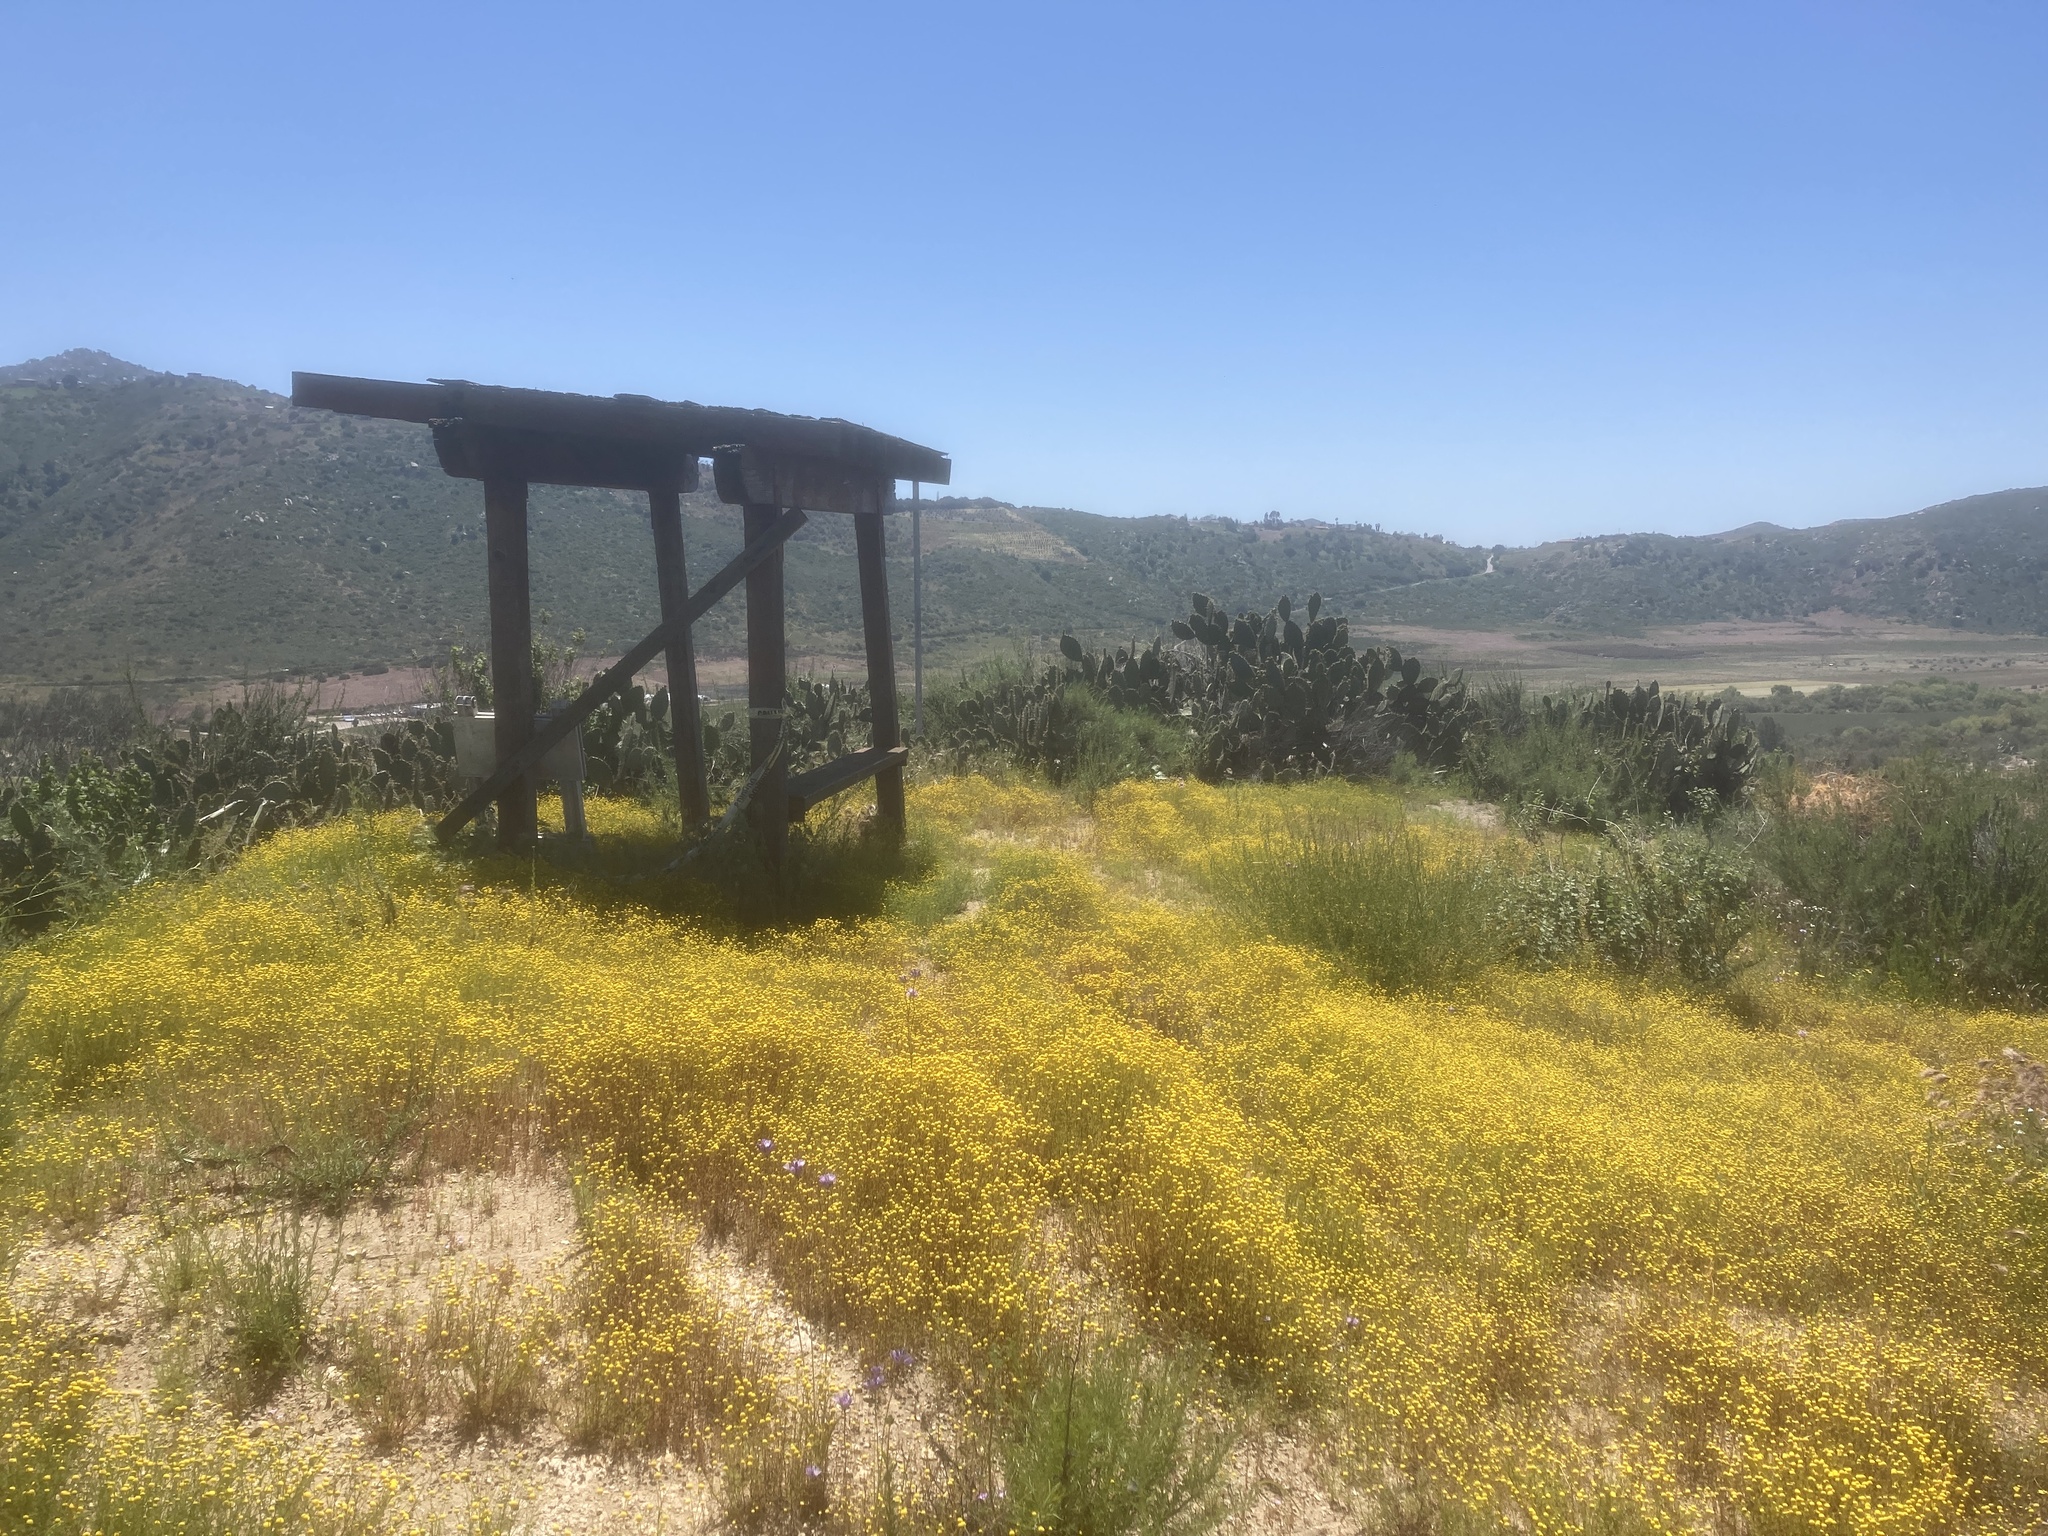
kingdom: Plantae
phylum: Tracheophyta
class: Magnoliopsida
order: Asterales
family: Asteraceae
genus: Oncosiphon
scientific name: Oncosiphon pilulifer
